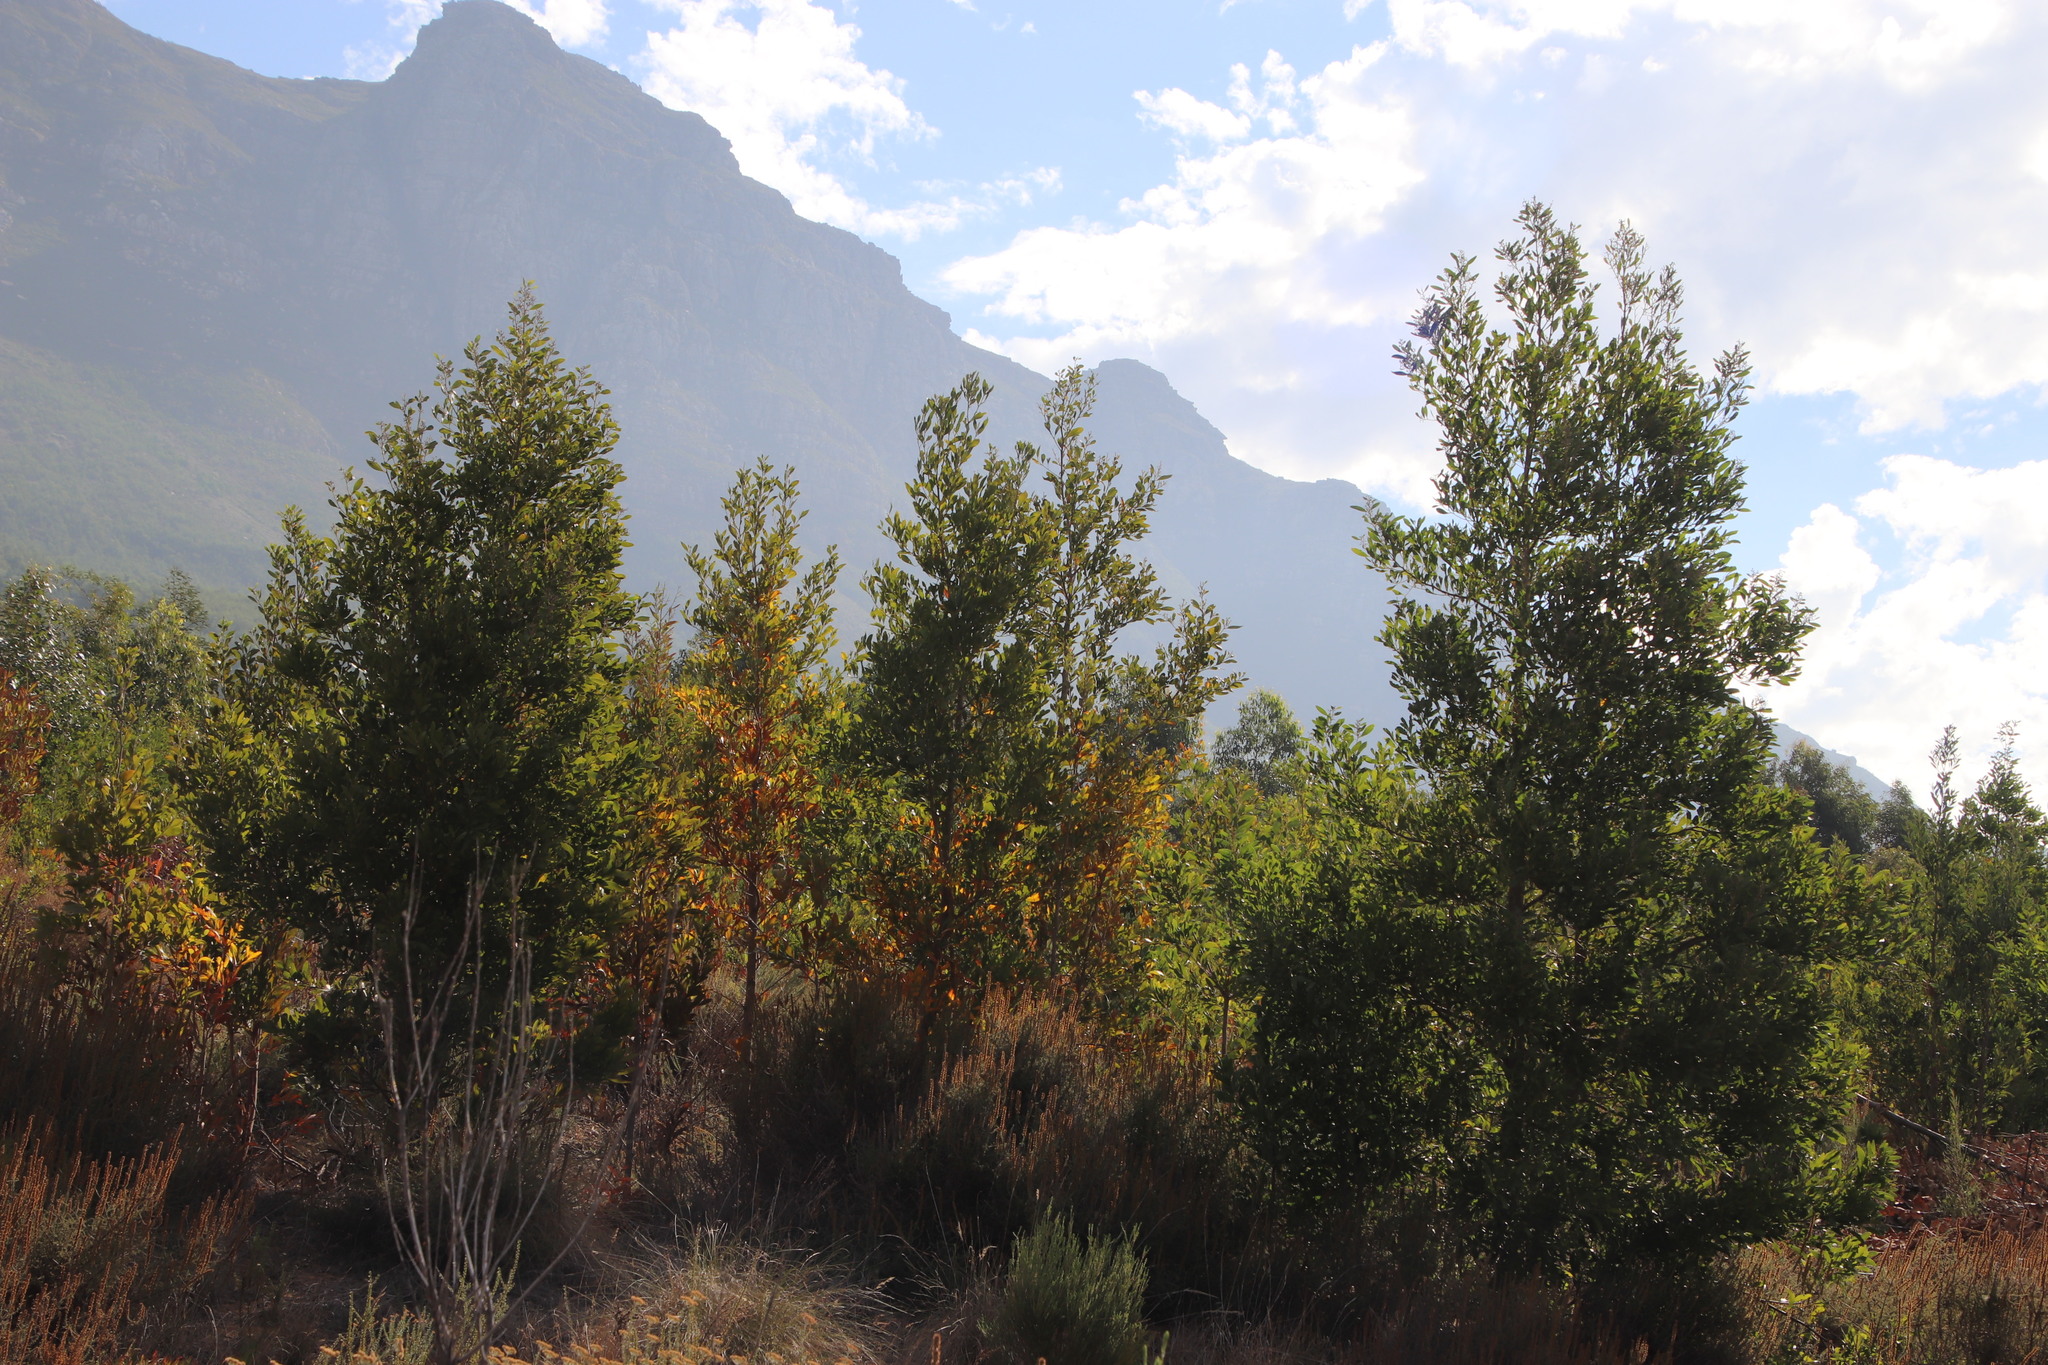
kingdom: Plantae
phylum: Tracheophyta
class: Magnoliopsida
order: Fabales
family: Fabaceae
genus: Acacia
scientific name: Acacia melanoxylon
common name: Blackwood
